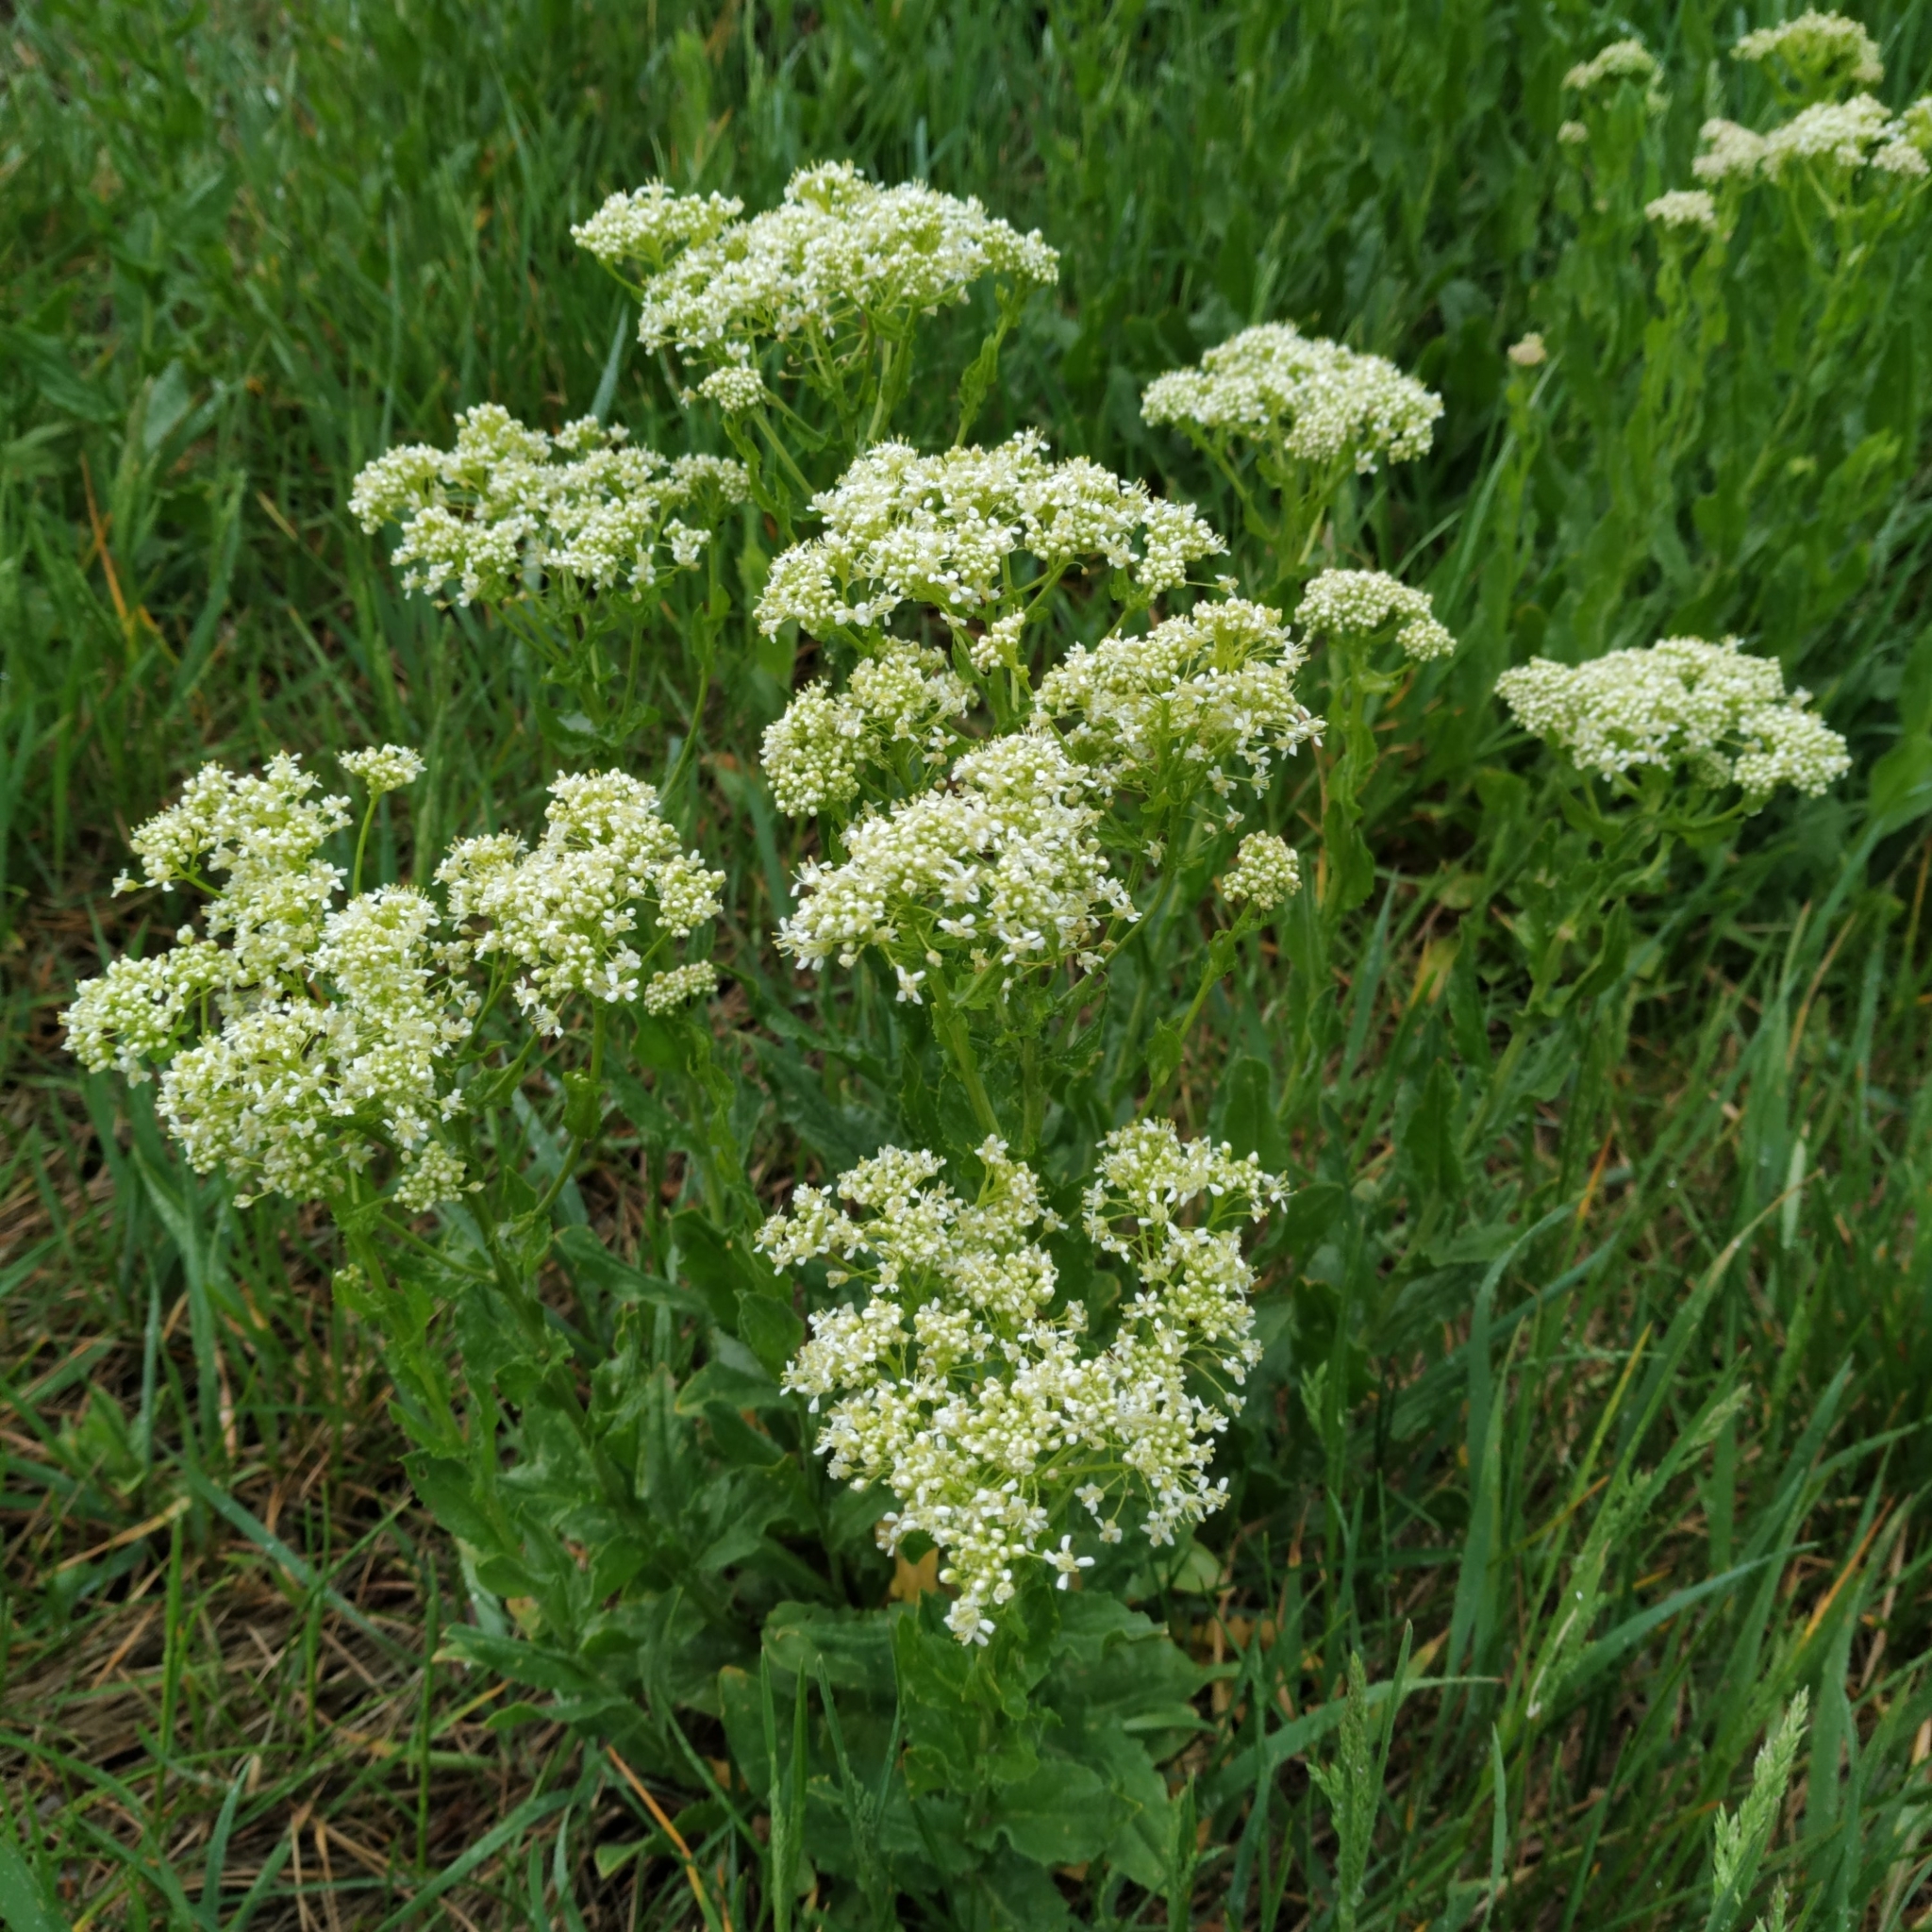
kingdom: Plantae
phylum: Tracheophyta
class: Magnoliopsida
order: Brassicales
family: Brassicaceae
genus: Lepidium
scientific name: Lepidium draba
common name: Hoary cress
